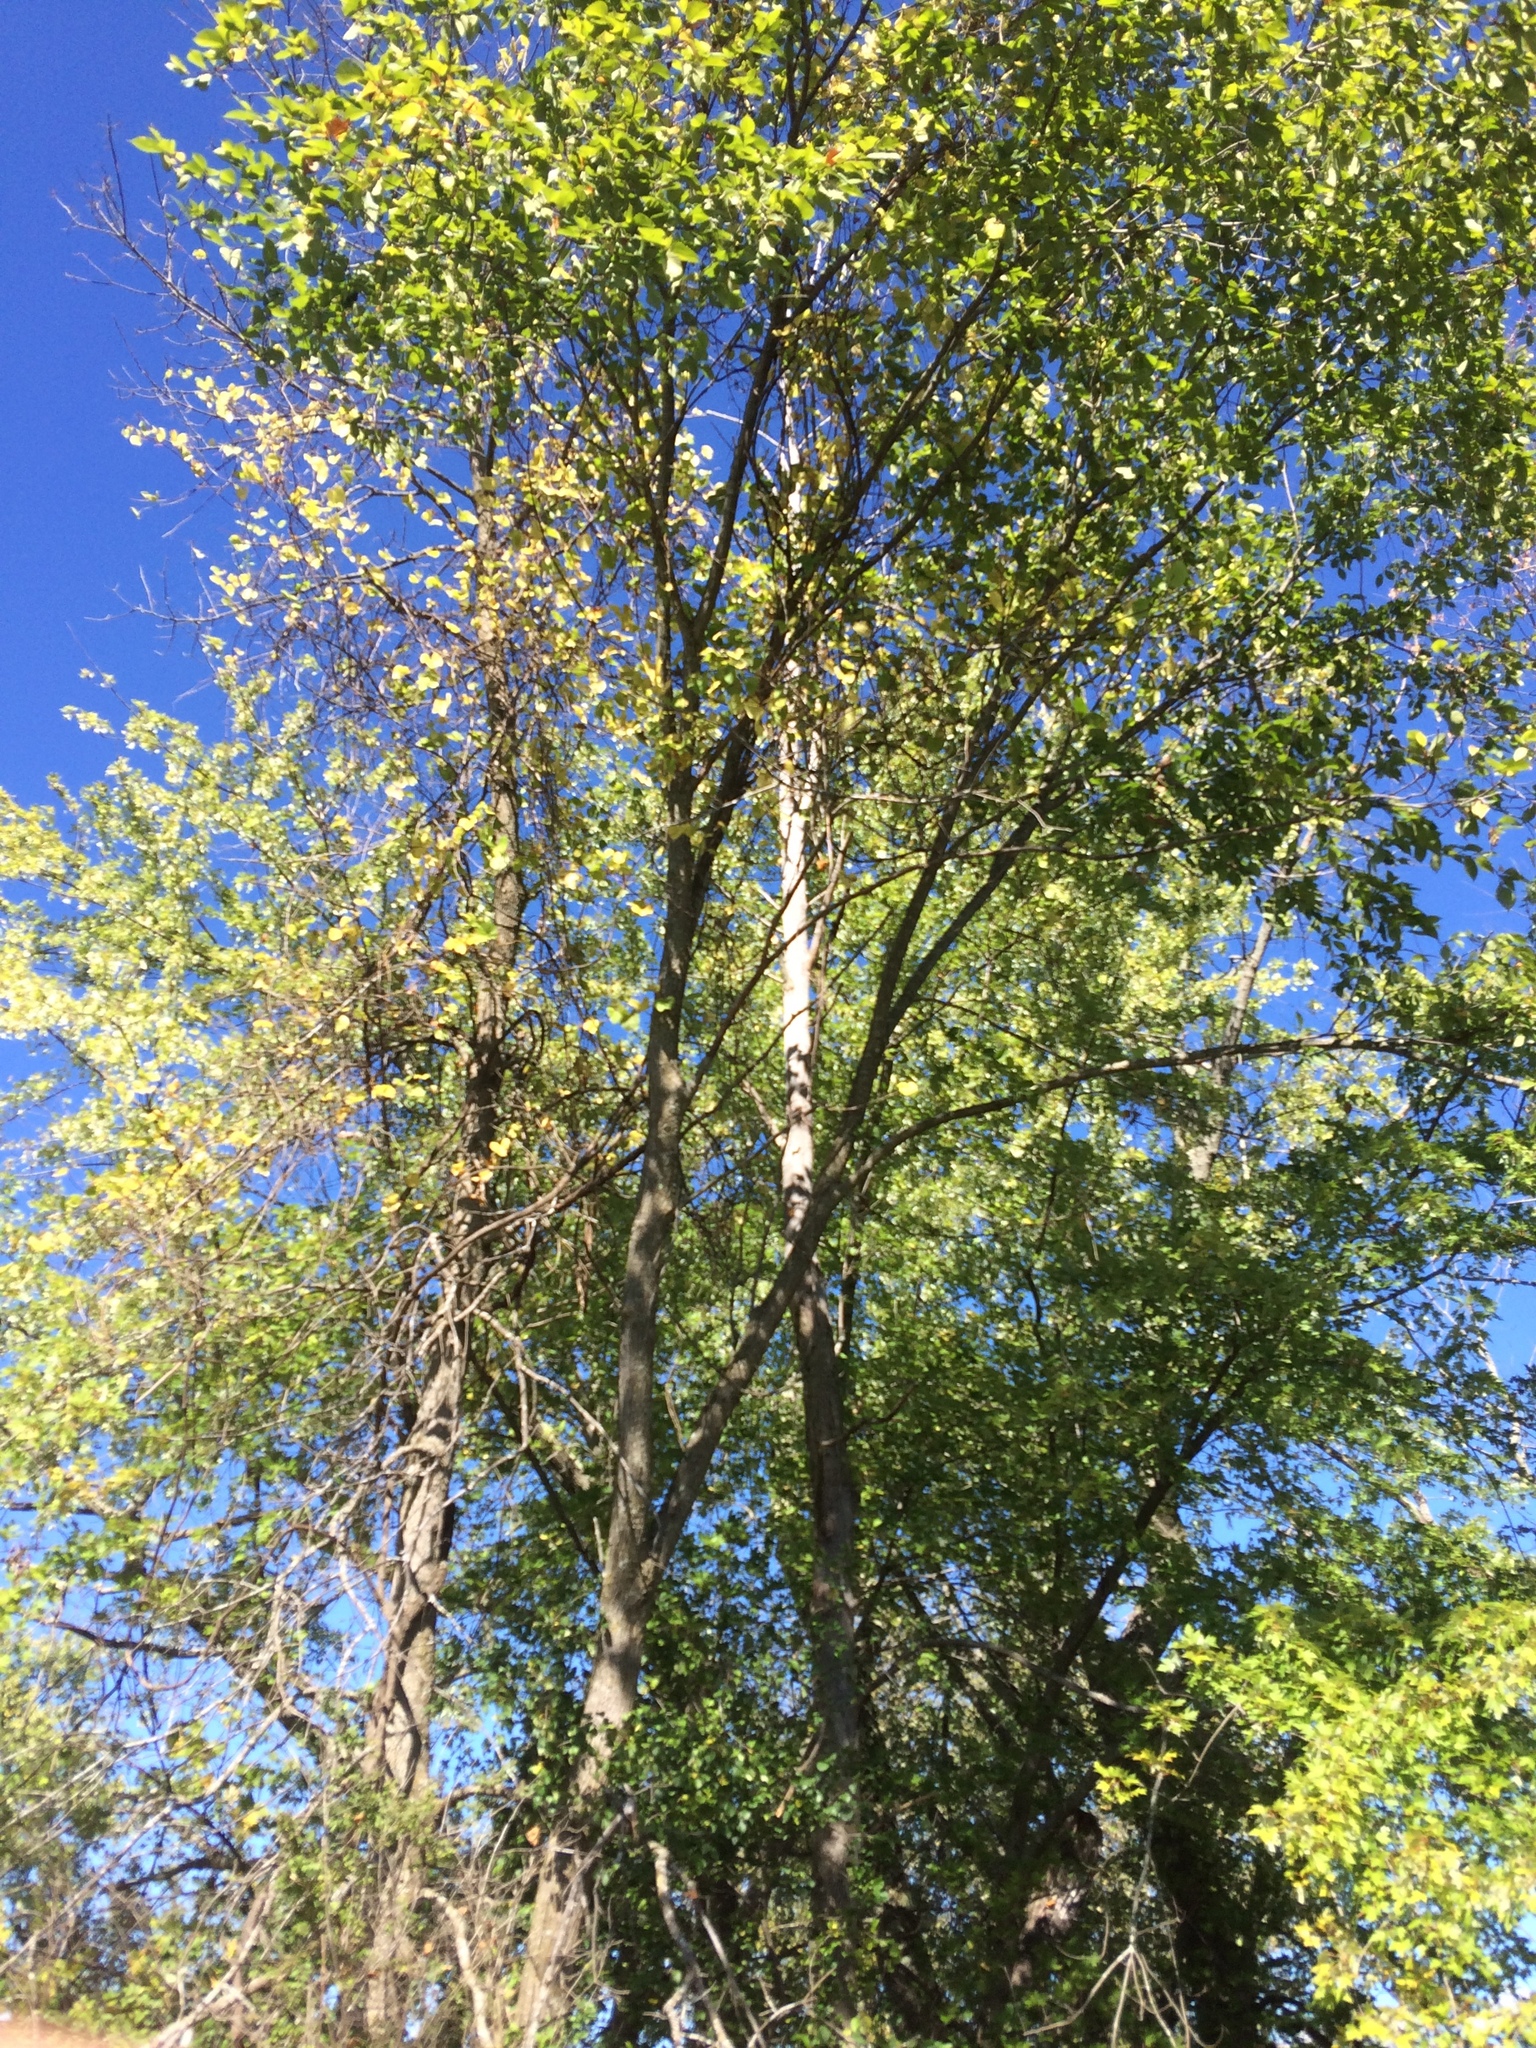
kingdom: Plantae
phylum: Tracheophyta
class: Magnoliopsida
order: Rosales
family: Ulmaceae
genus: Ulmus
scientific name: Ulmus americana
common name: American elm
